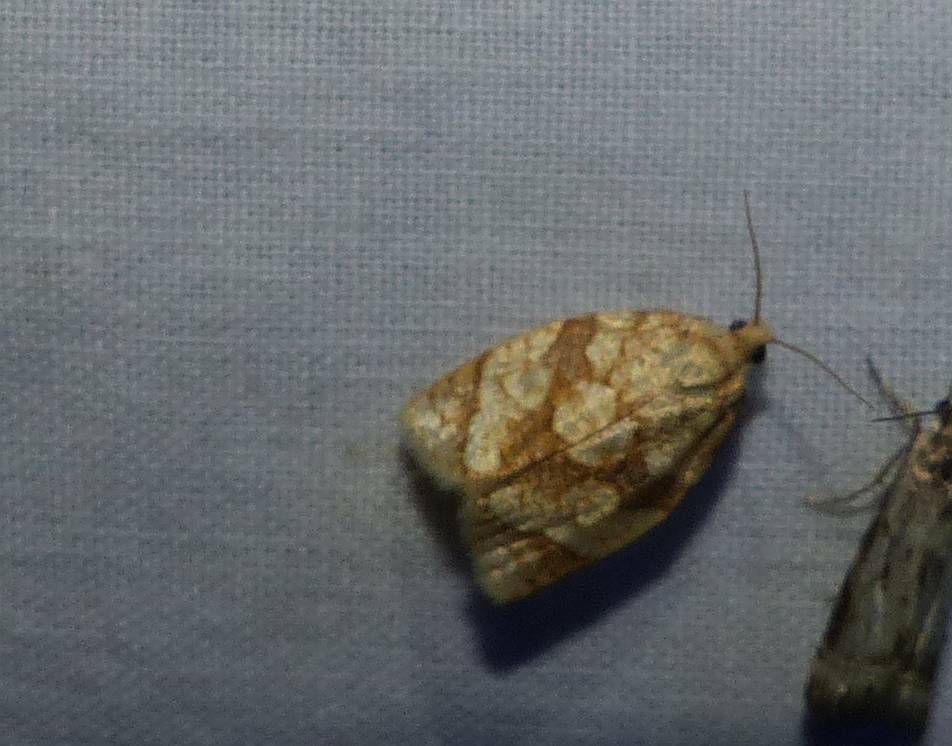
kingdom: Animalia
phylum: Arthropoda
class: Insecta
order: Lepidoptera
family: Tortricidae
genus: Adoxophyes
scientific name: Adoxophyes negundana
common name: Shimmering gold adoxophyes moth
